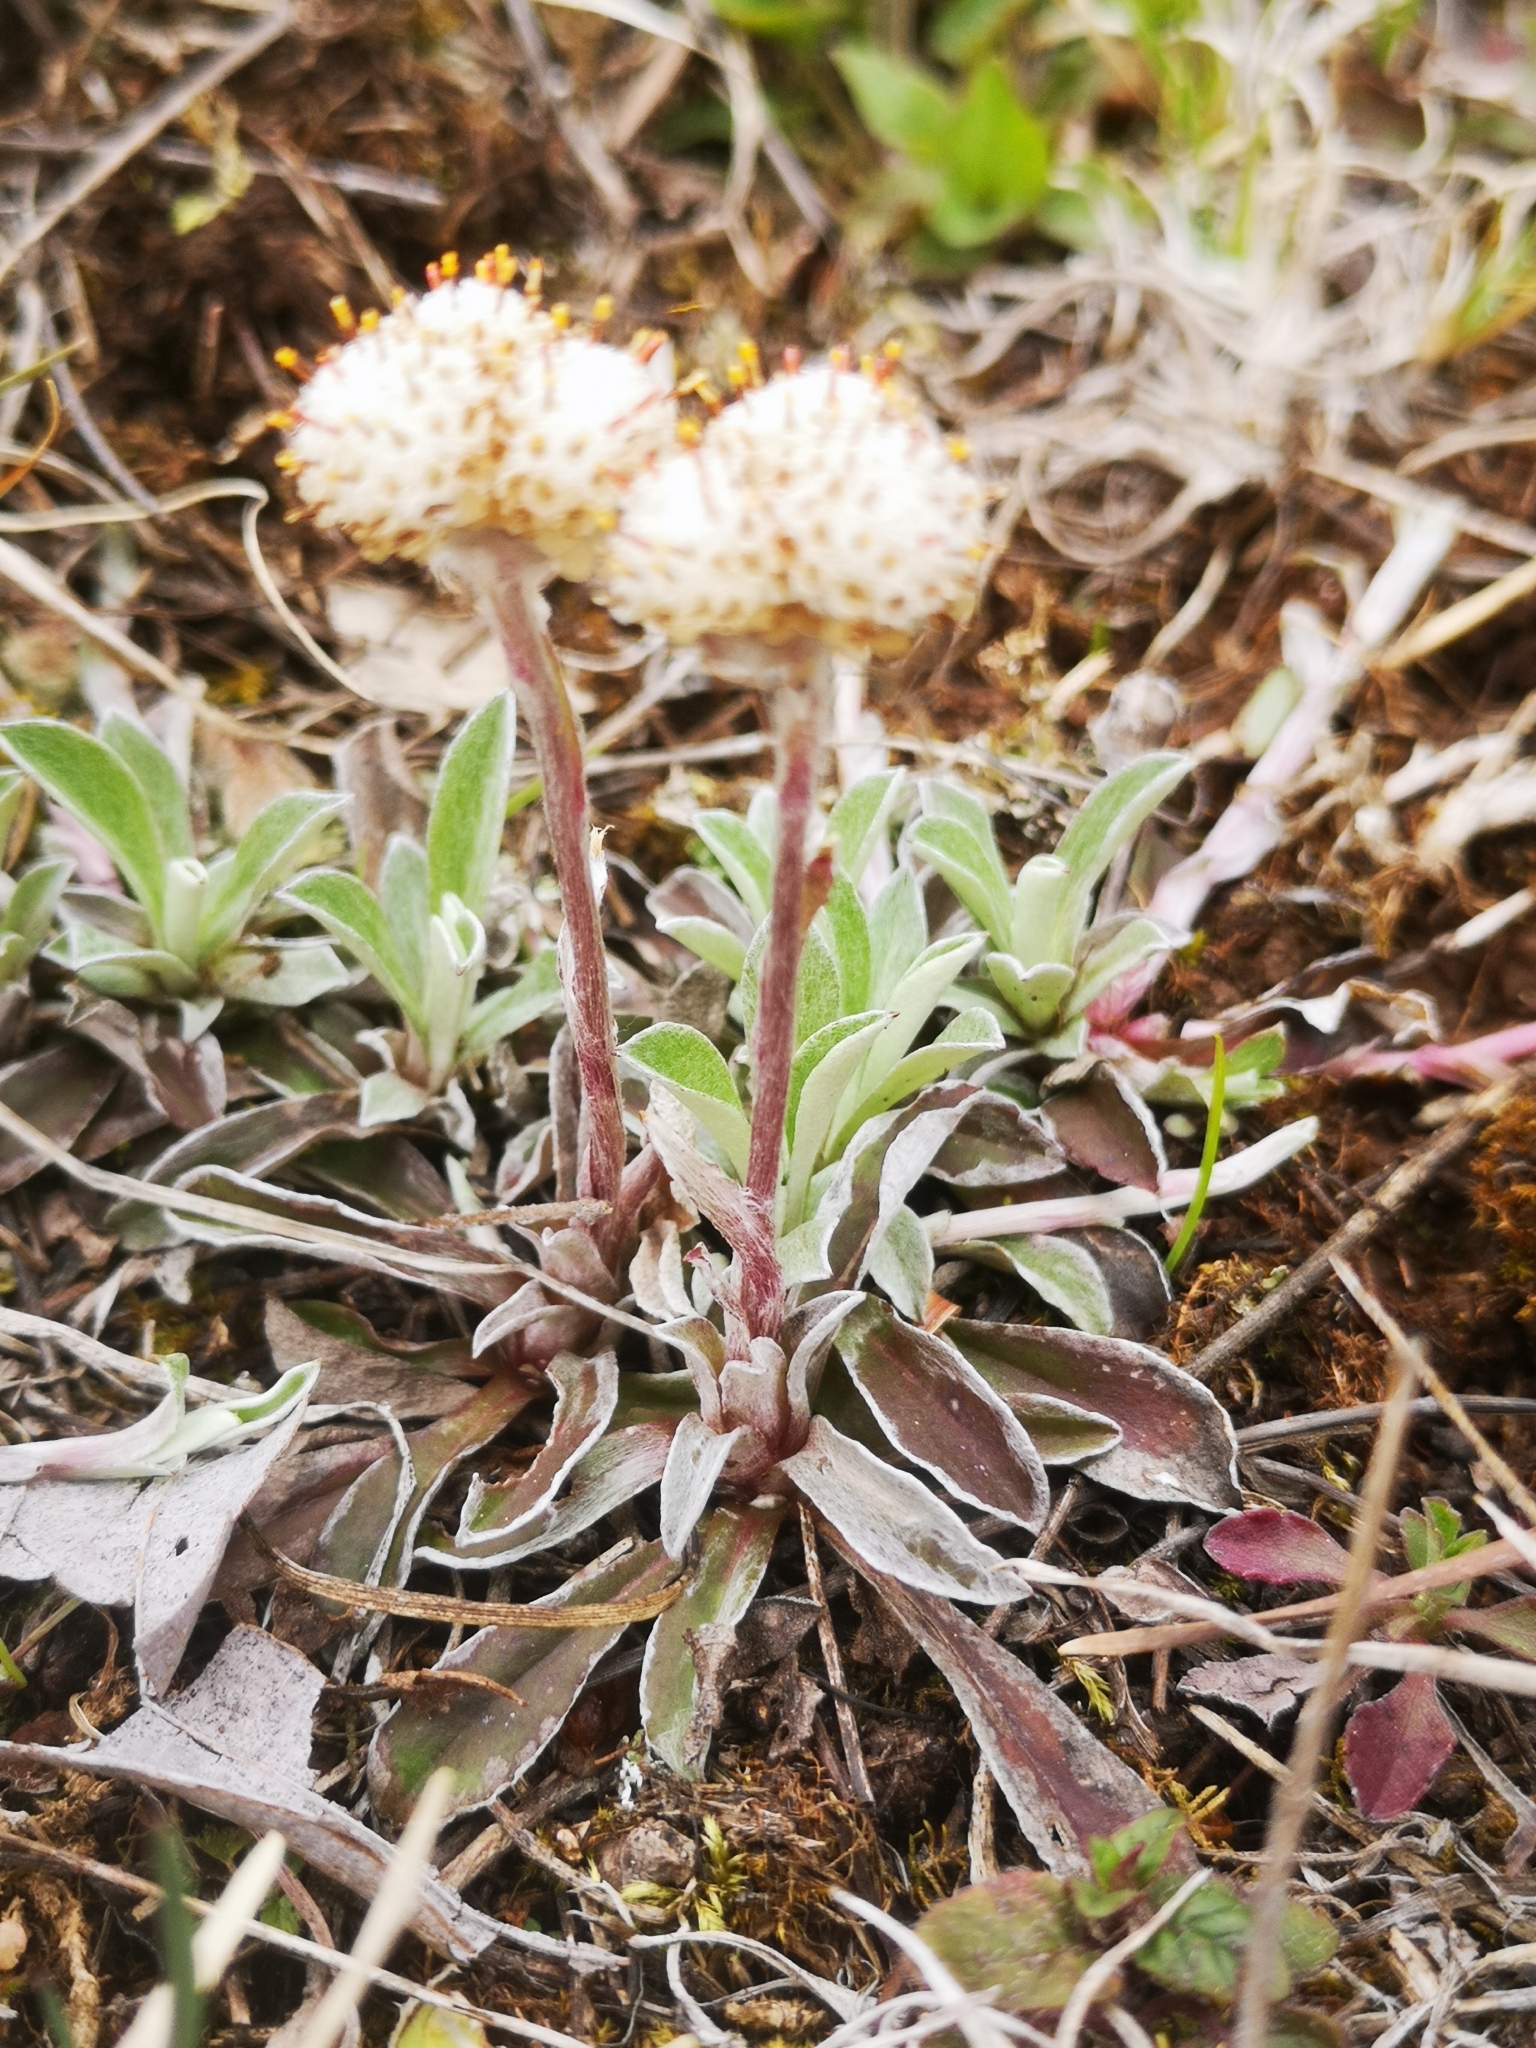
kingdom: Plantae
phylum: Tracheophyta
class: Magnoliopsida
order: Asterales
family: Asteraceae
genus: Antennaria
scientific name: Antennaria neglecta
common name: Field pussytoes
